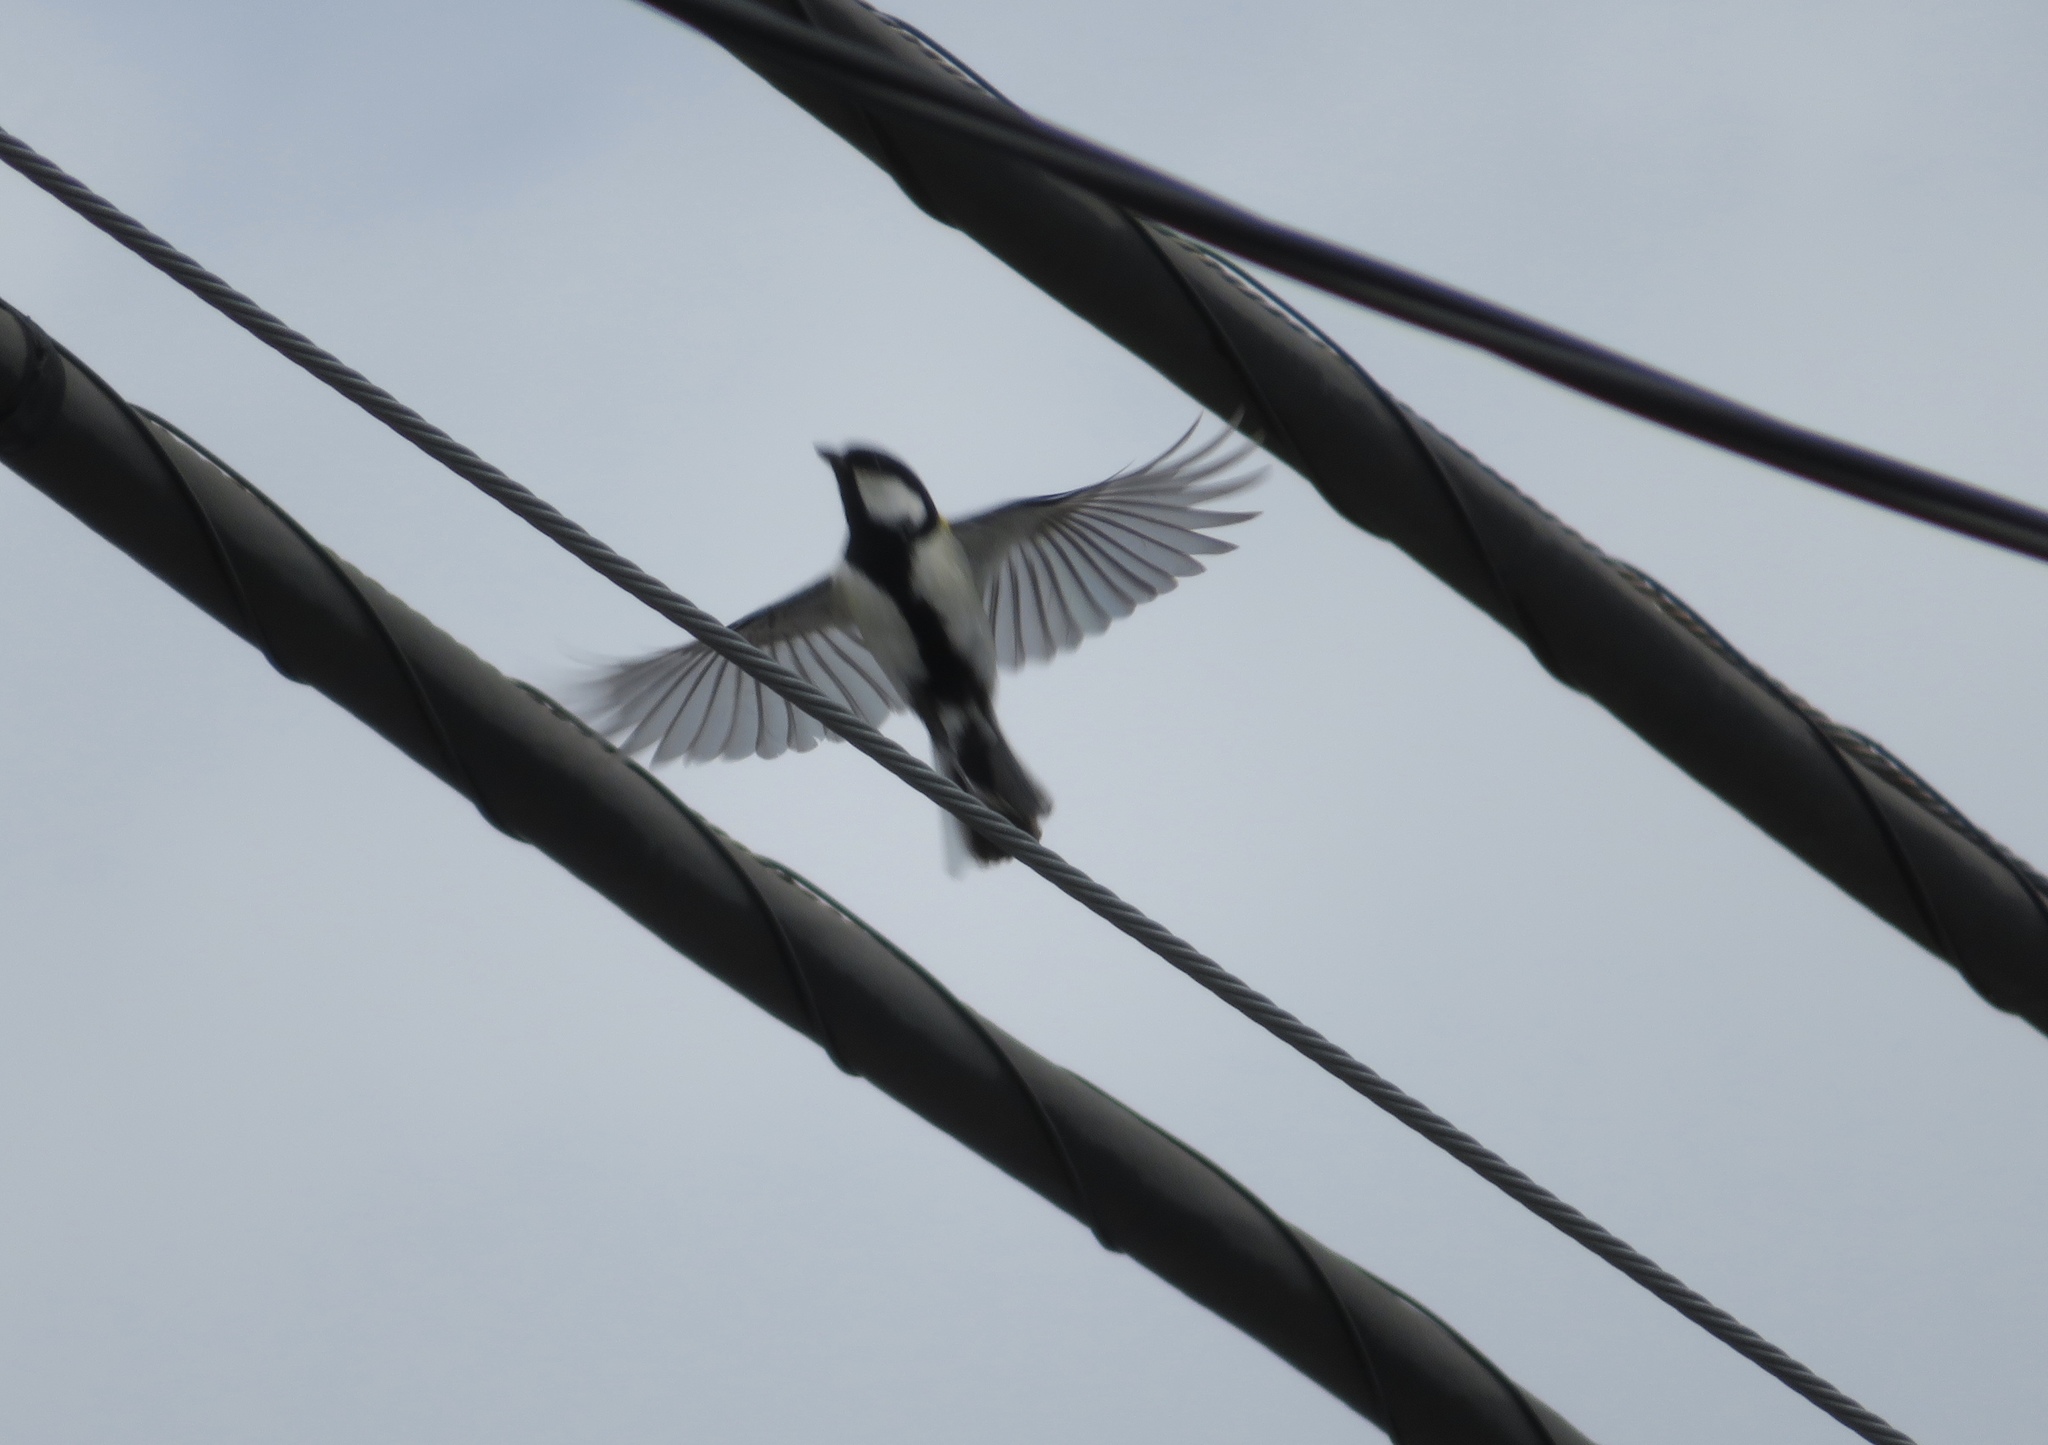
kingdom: Animalia
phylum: Chordata
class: Aves
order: Passeriformes
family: Paridae
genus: Parus
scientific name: Parus minor
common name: Japanese tit
